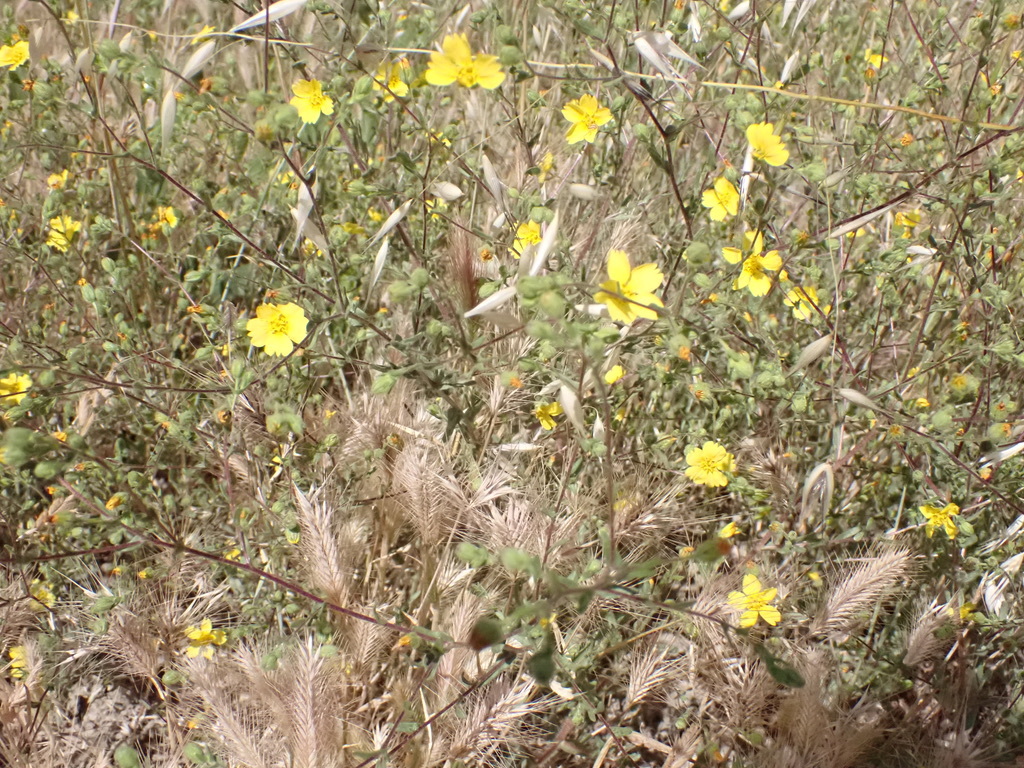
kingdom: Plantae
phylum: Tracheophyta
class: Magnoliopsida
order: Asterales
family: Asteraceae
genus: Deinandra
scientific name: Deinandra kelloggii
